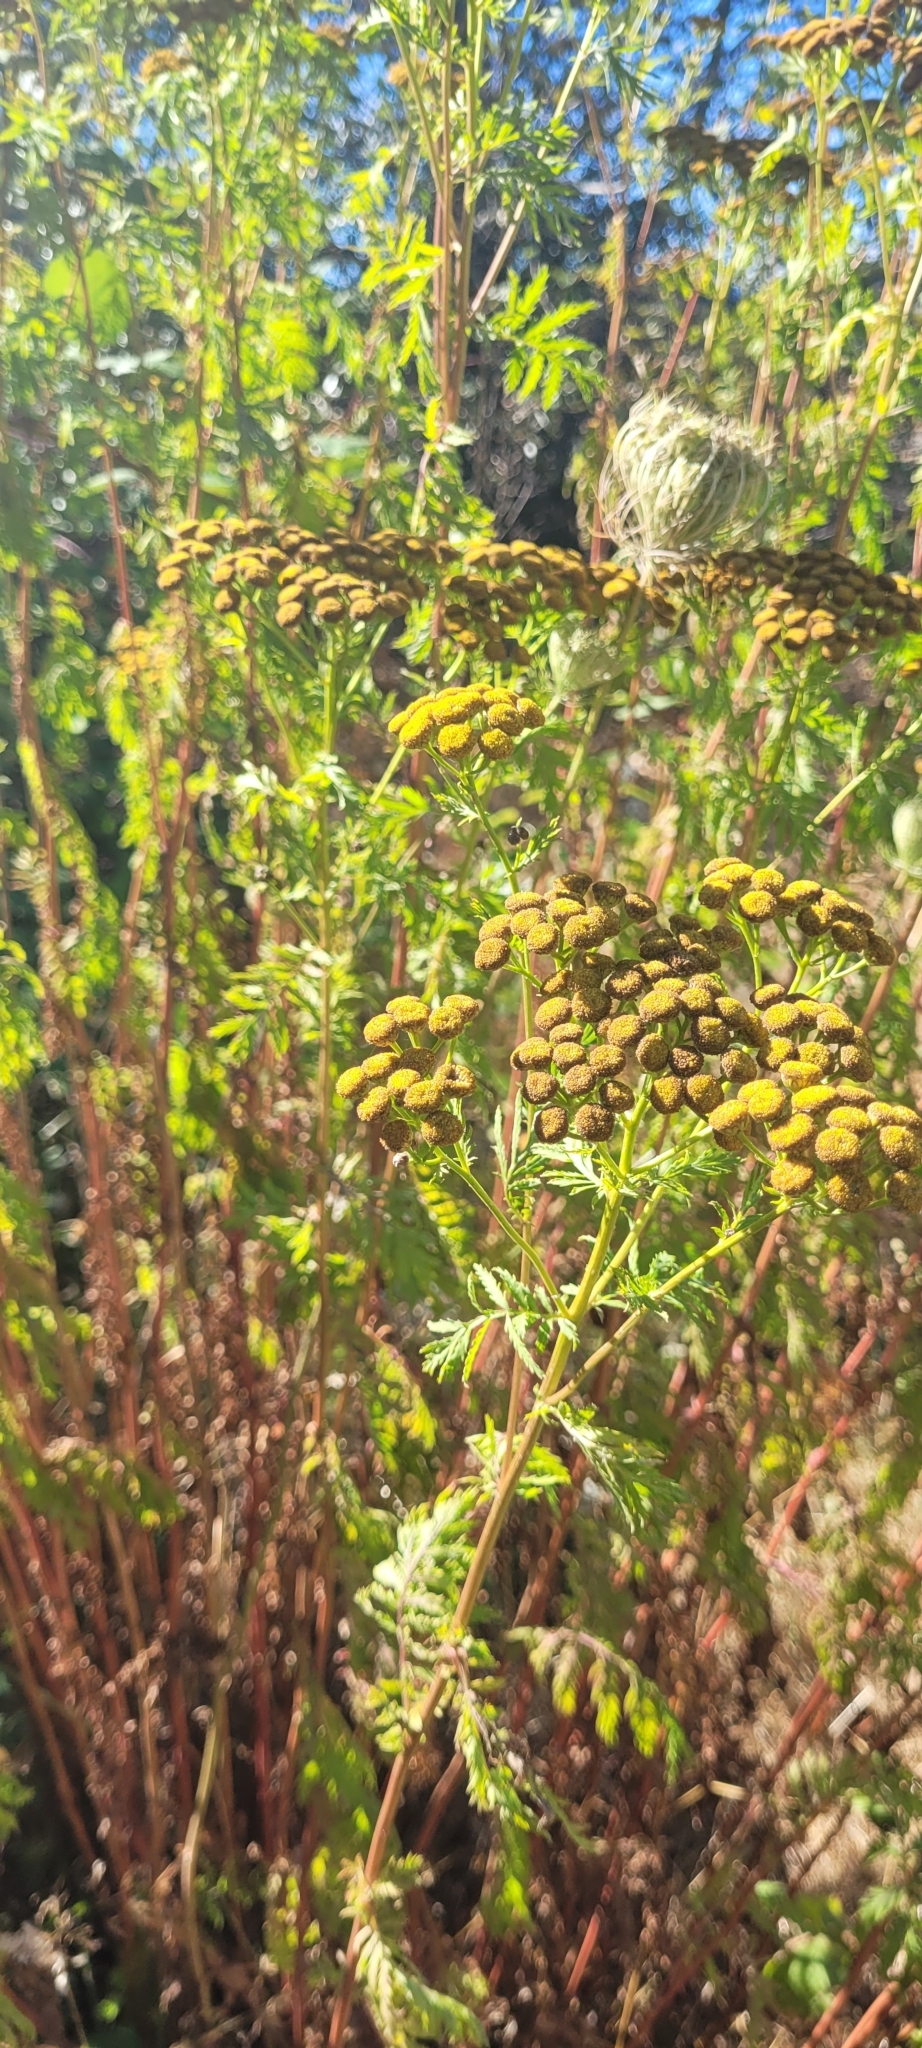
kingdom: Plantae
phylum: Tracheophyta
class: Magnoliopsida
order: Asterales
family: Asteraceae
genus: Tanacetum
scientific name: Tanacetum vulgare
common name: Common tansy
